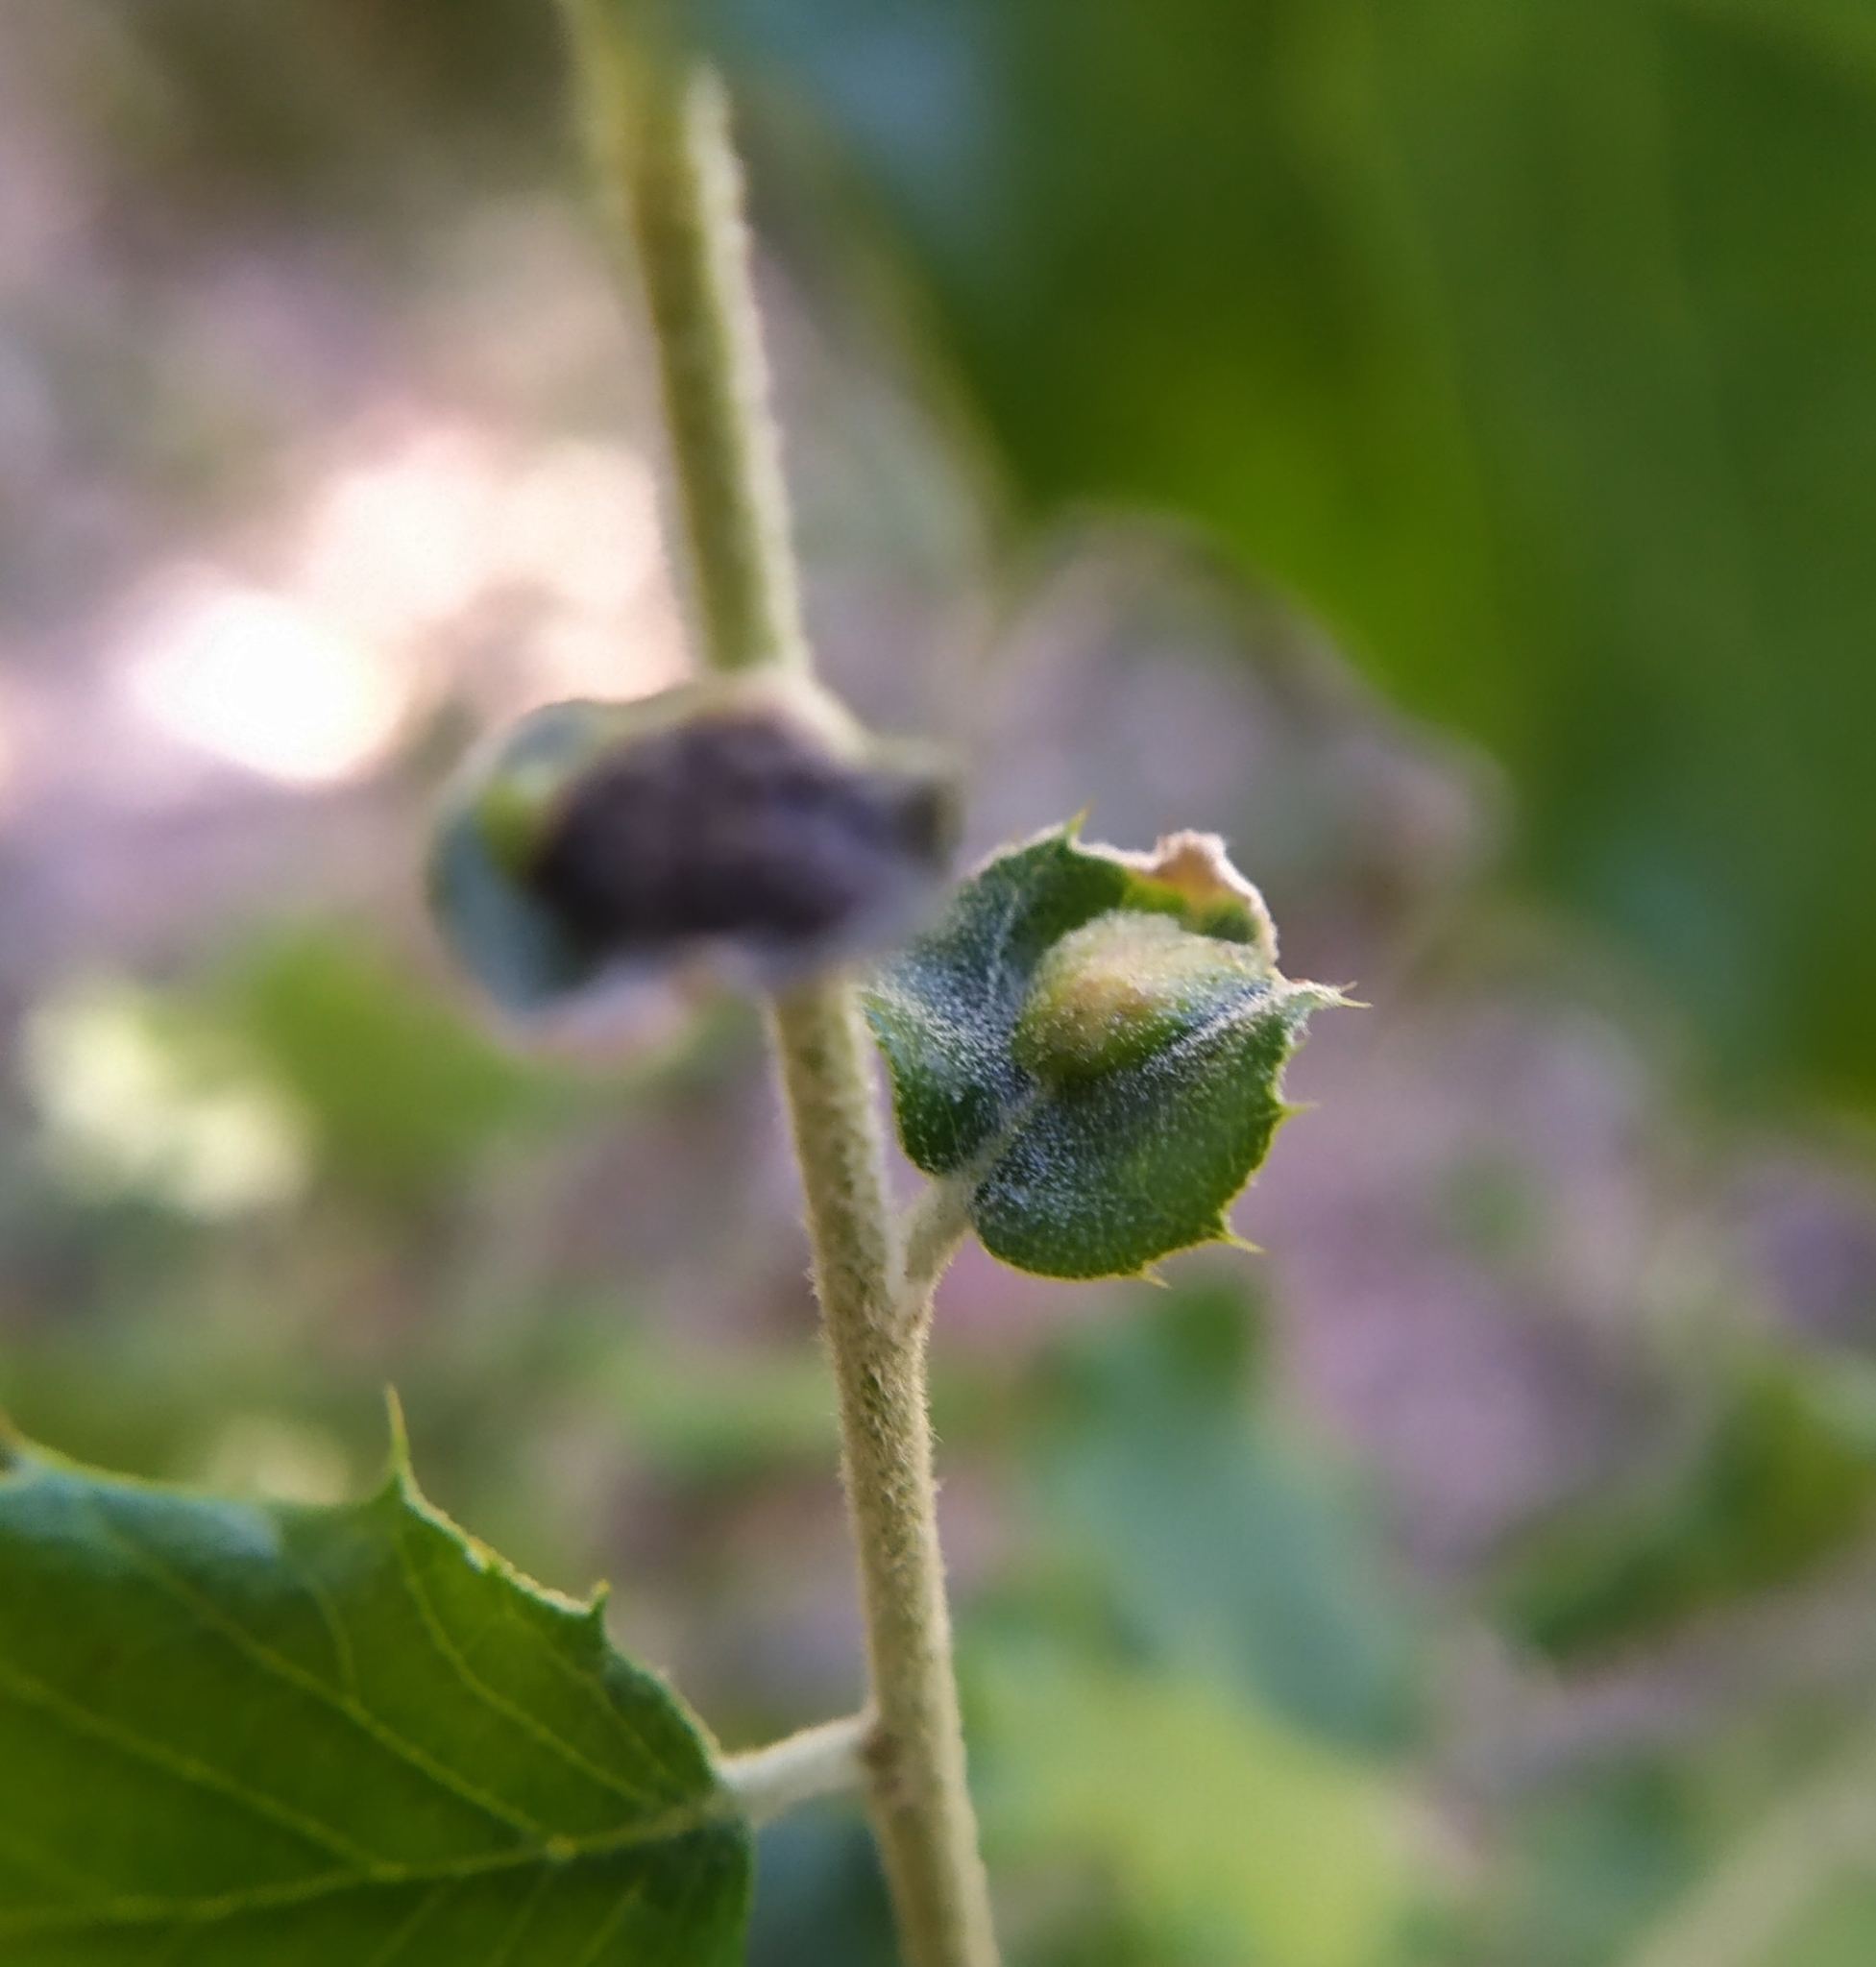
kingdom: Animalia
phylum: Arthropoda
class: Insecta
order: Hymenoptera
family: Cynipidae
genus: Plagiotrochus
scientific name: Plagiotrochus quercusilicis
